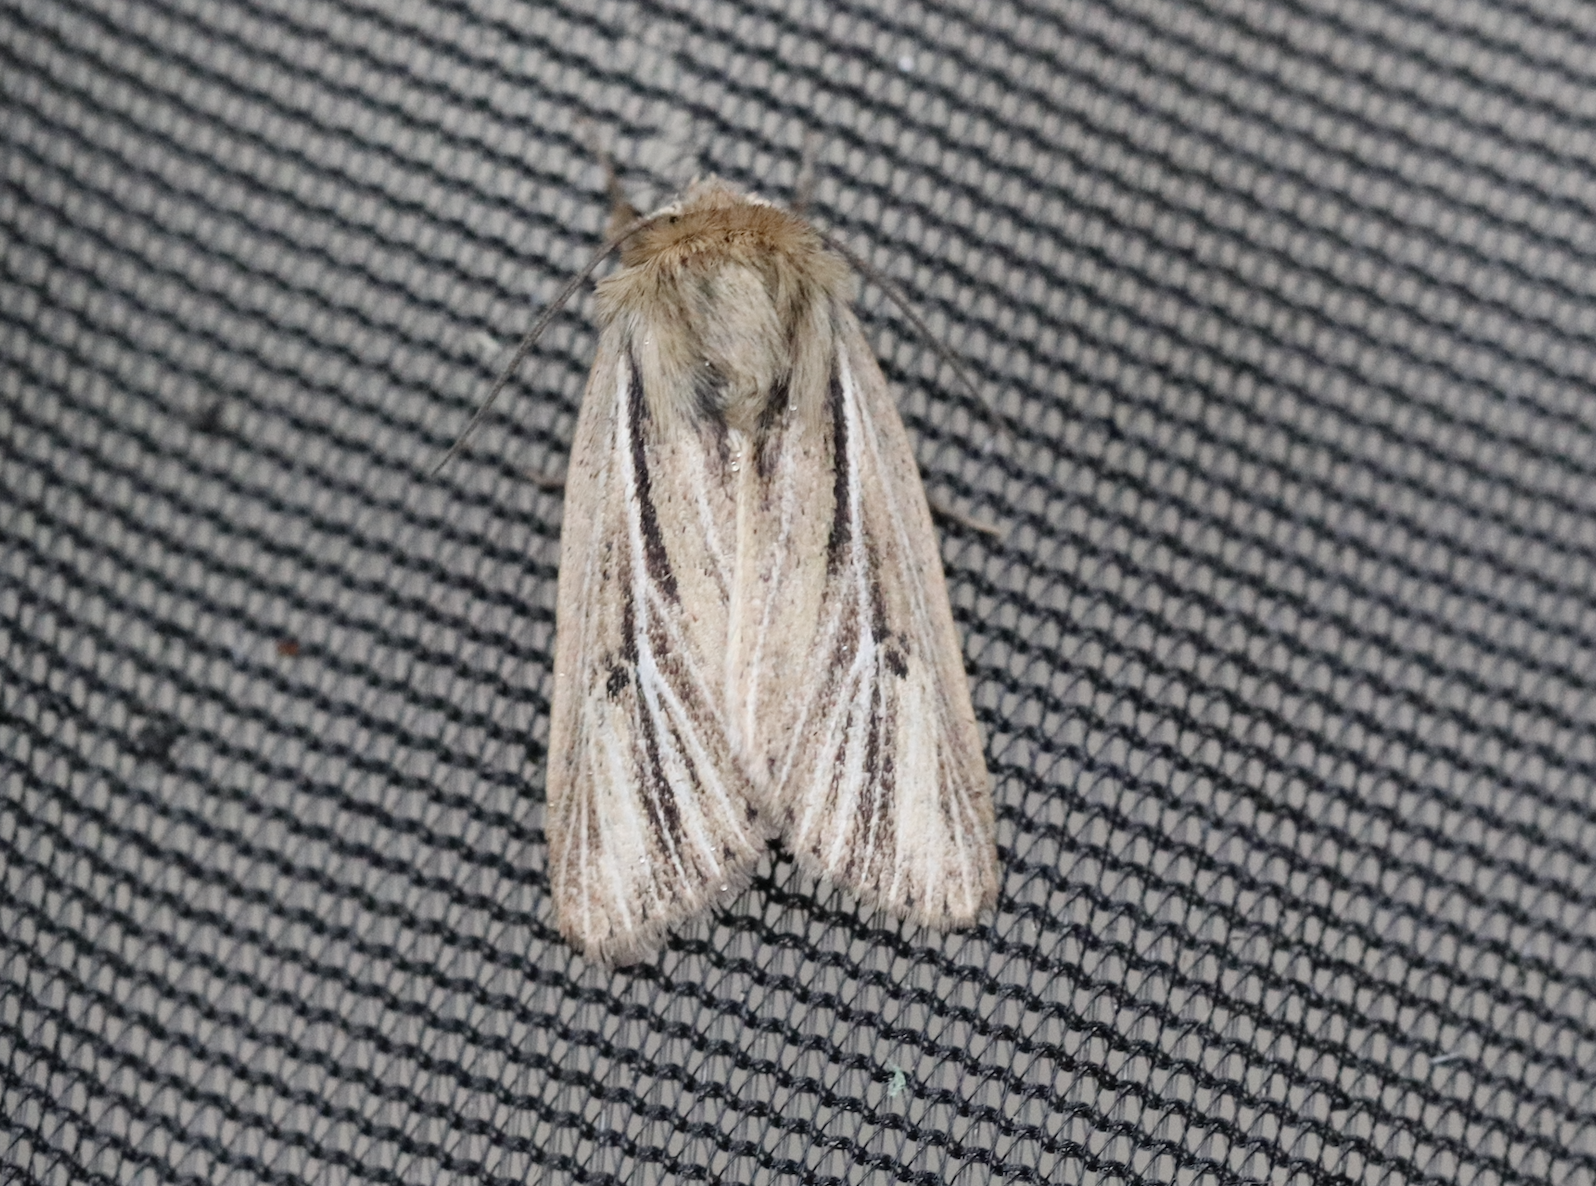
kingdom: Animalia
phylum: Arthropoda
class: Insecta
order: Lepidoptera
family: Noctuidae
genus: Mythimna
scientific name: Mythimna anderreggii
